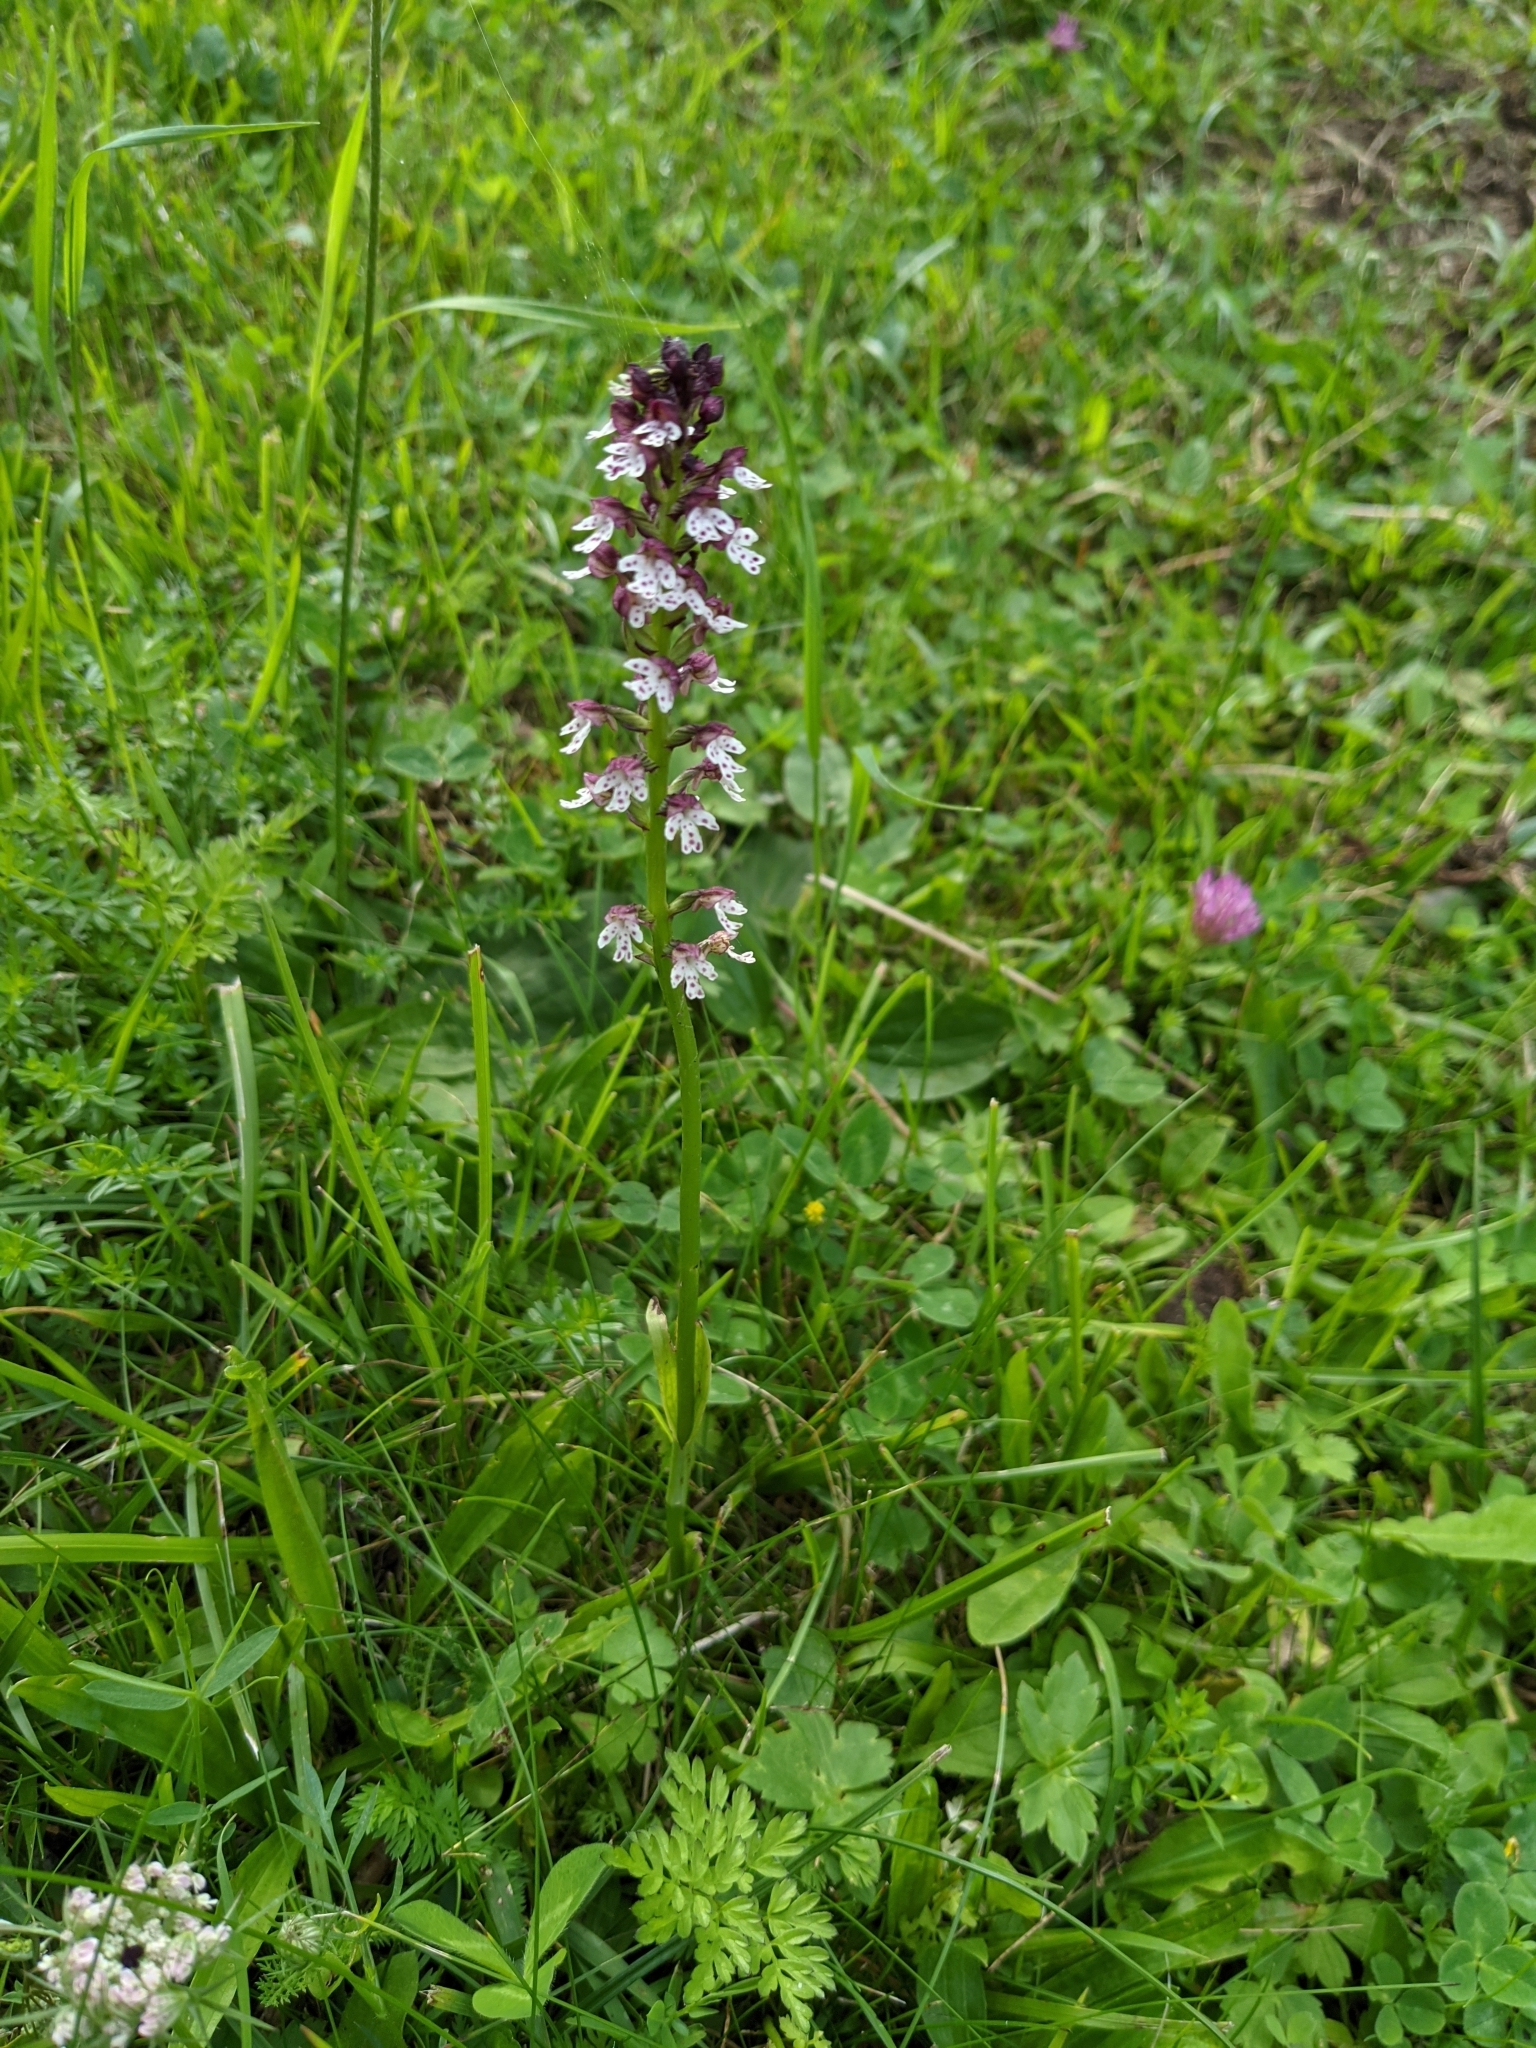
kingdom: Plantae
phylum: Tracheophyta
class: Liliopsida
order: Asparagales
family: Orchidaceae
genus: Neotinea
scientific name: Neotinea ustulata
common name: Burnt orchid
